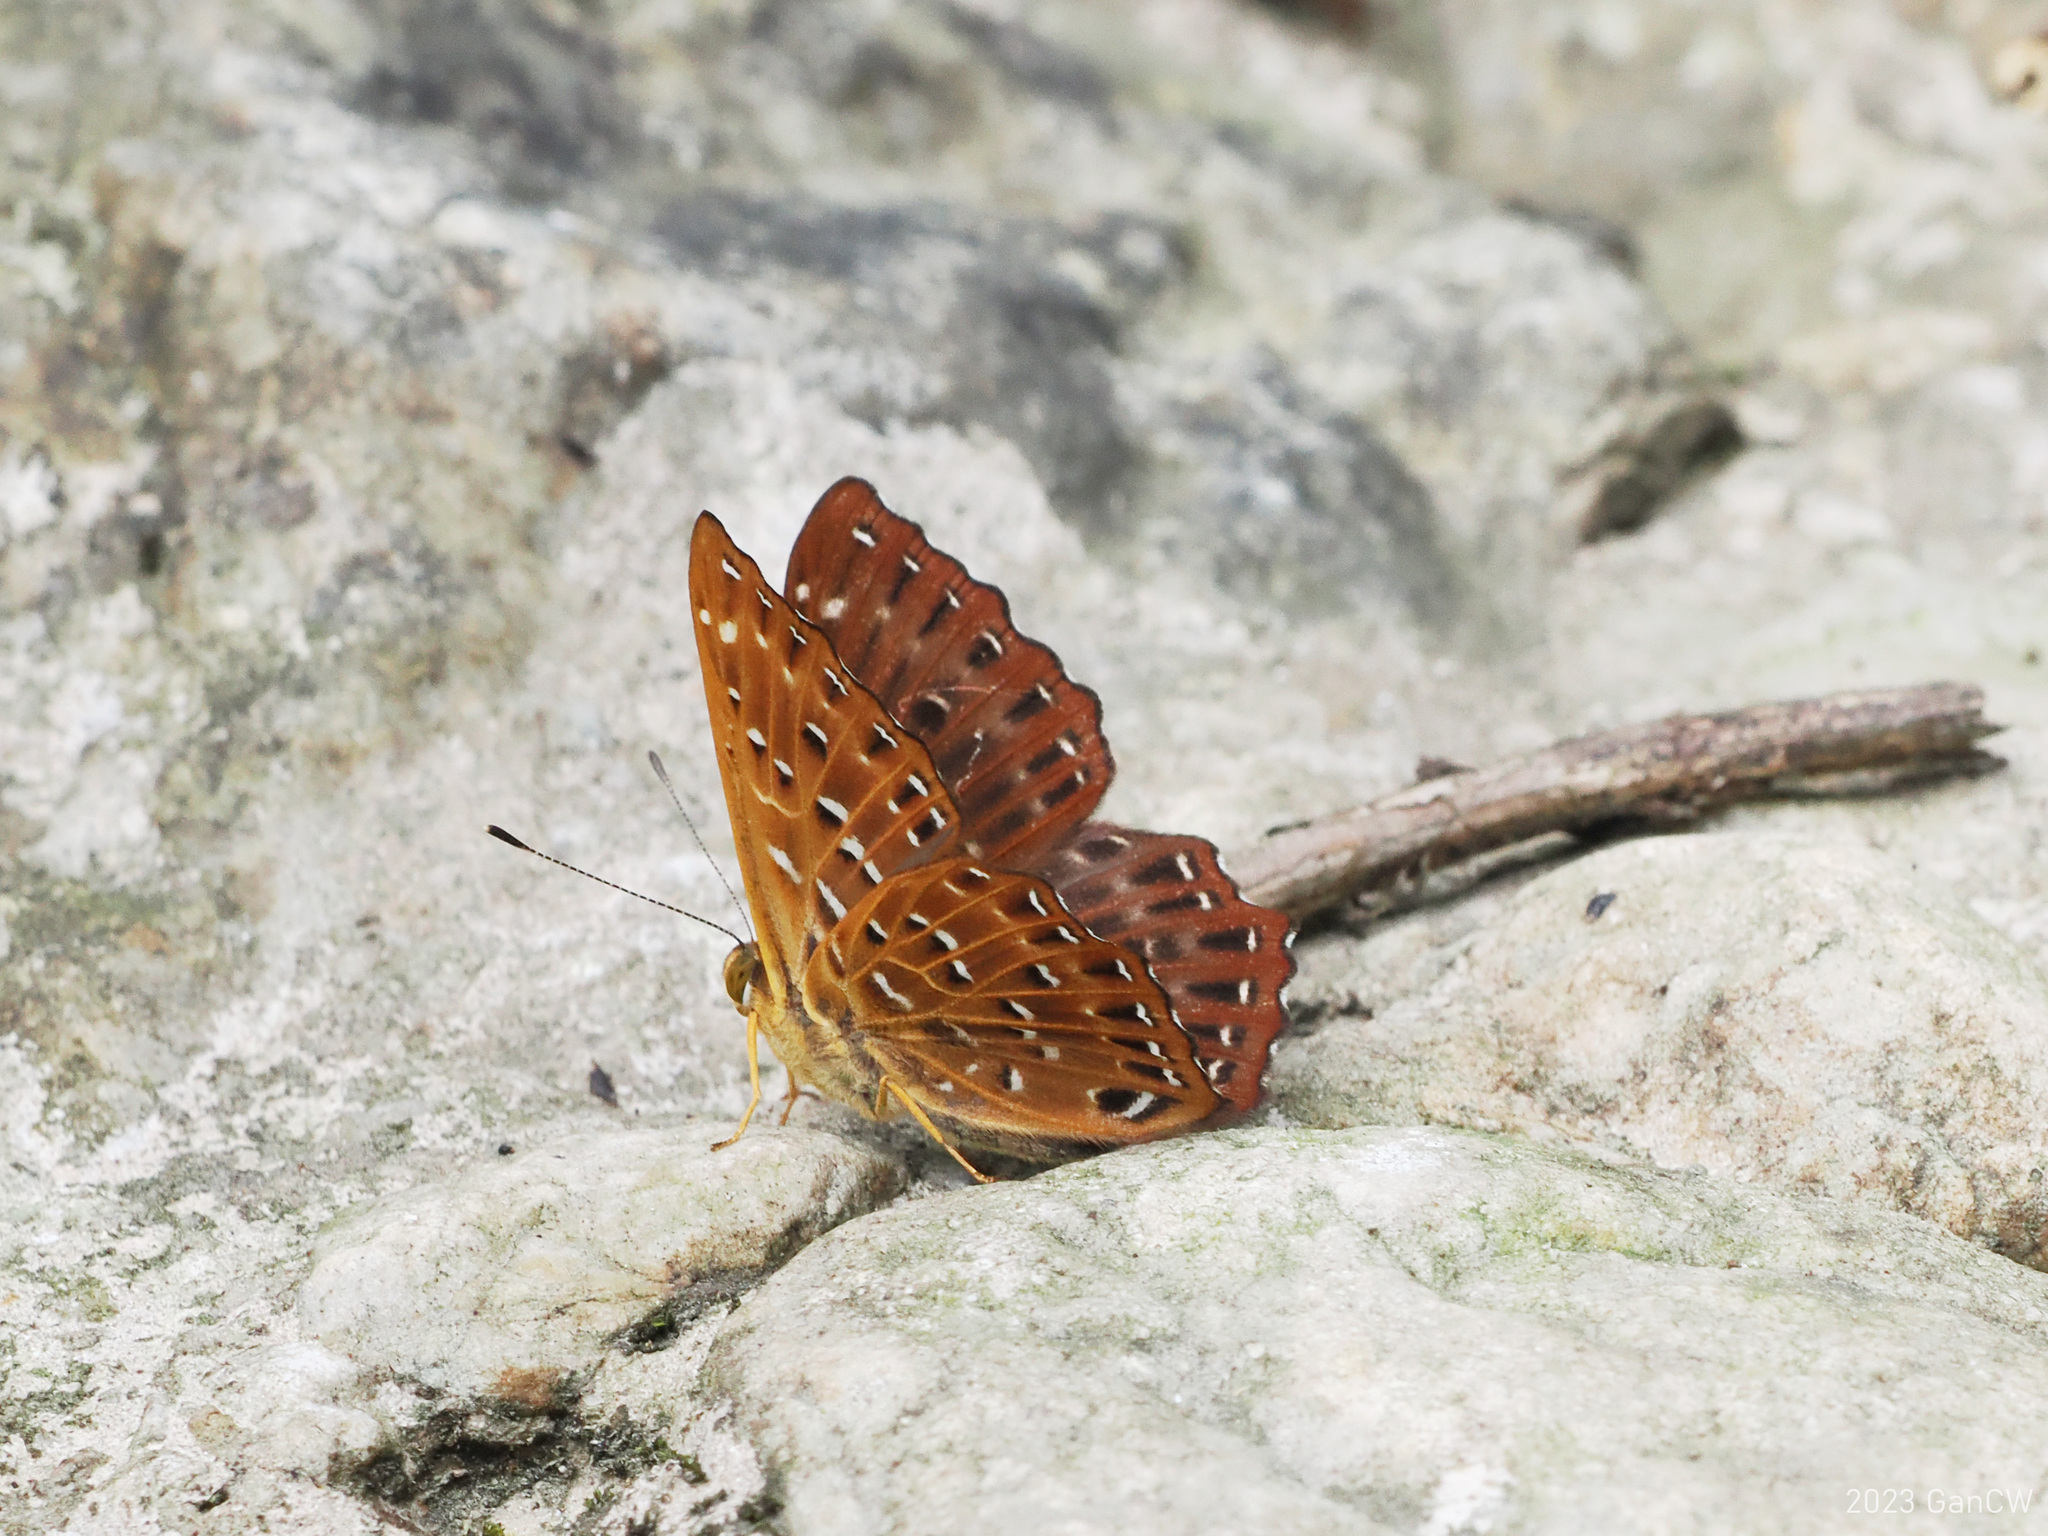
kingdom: Animalia
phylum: Arthropoda
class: Insecta
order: Lepidoptera
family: Riodinidae
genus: Zemeros
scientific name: Zemeros flegyas
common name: Punchinello
